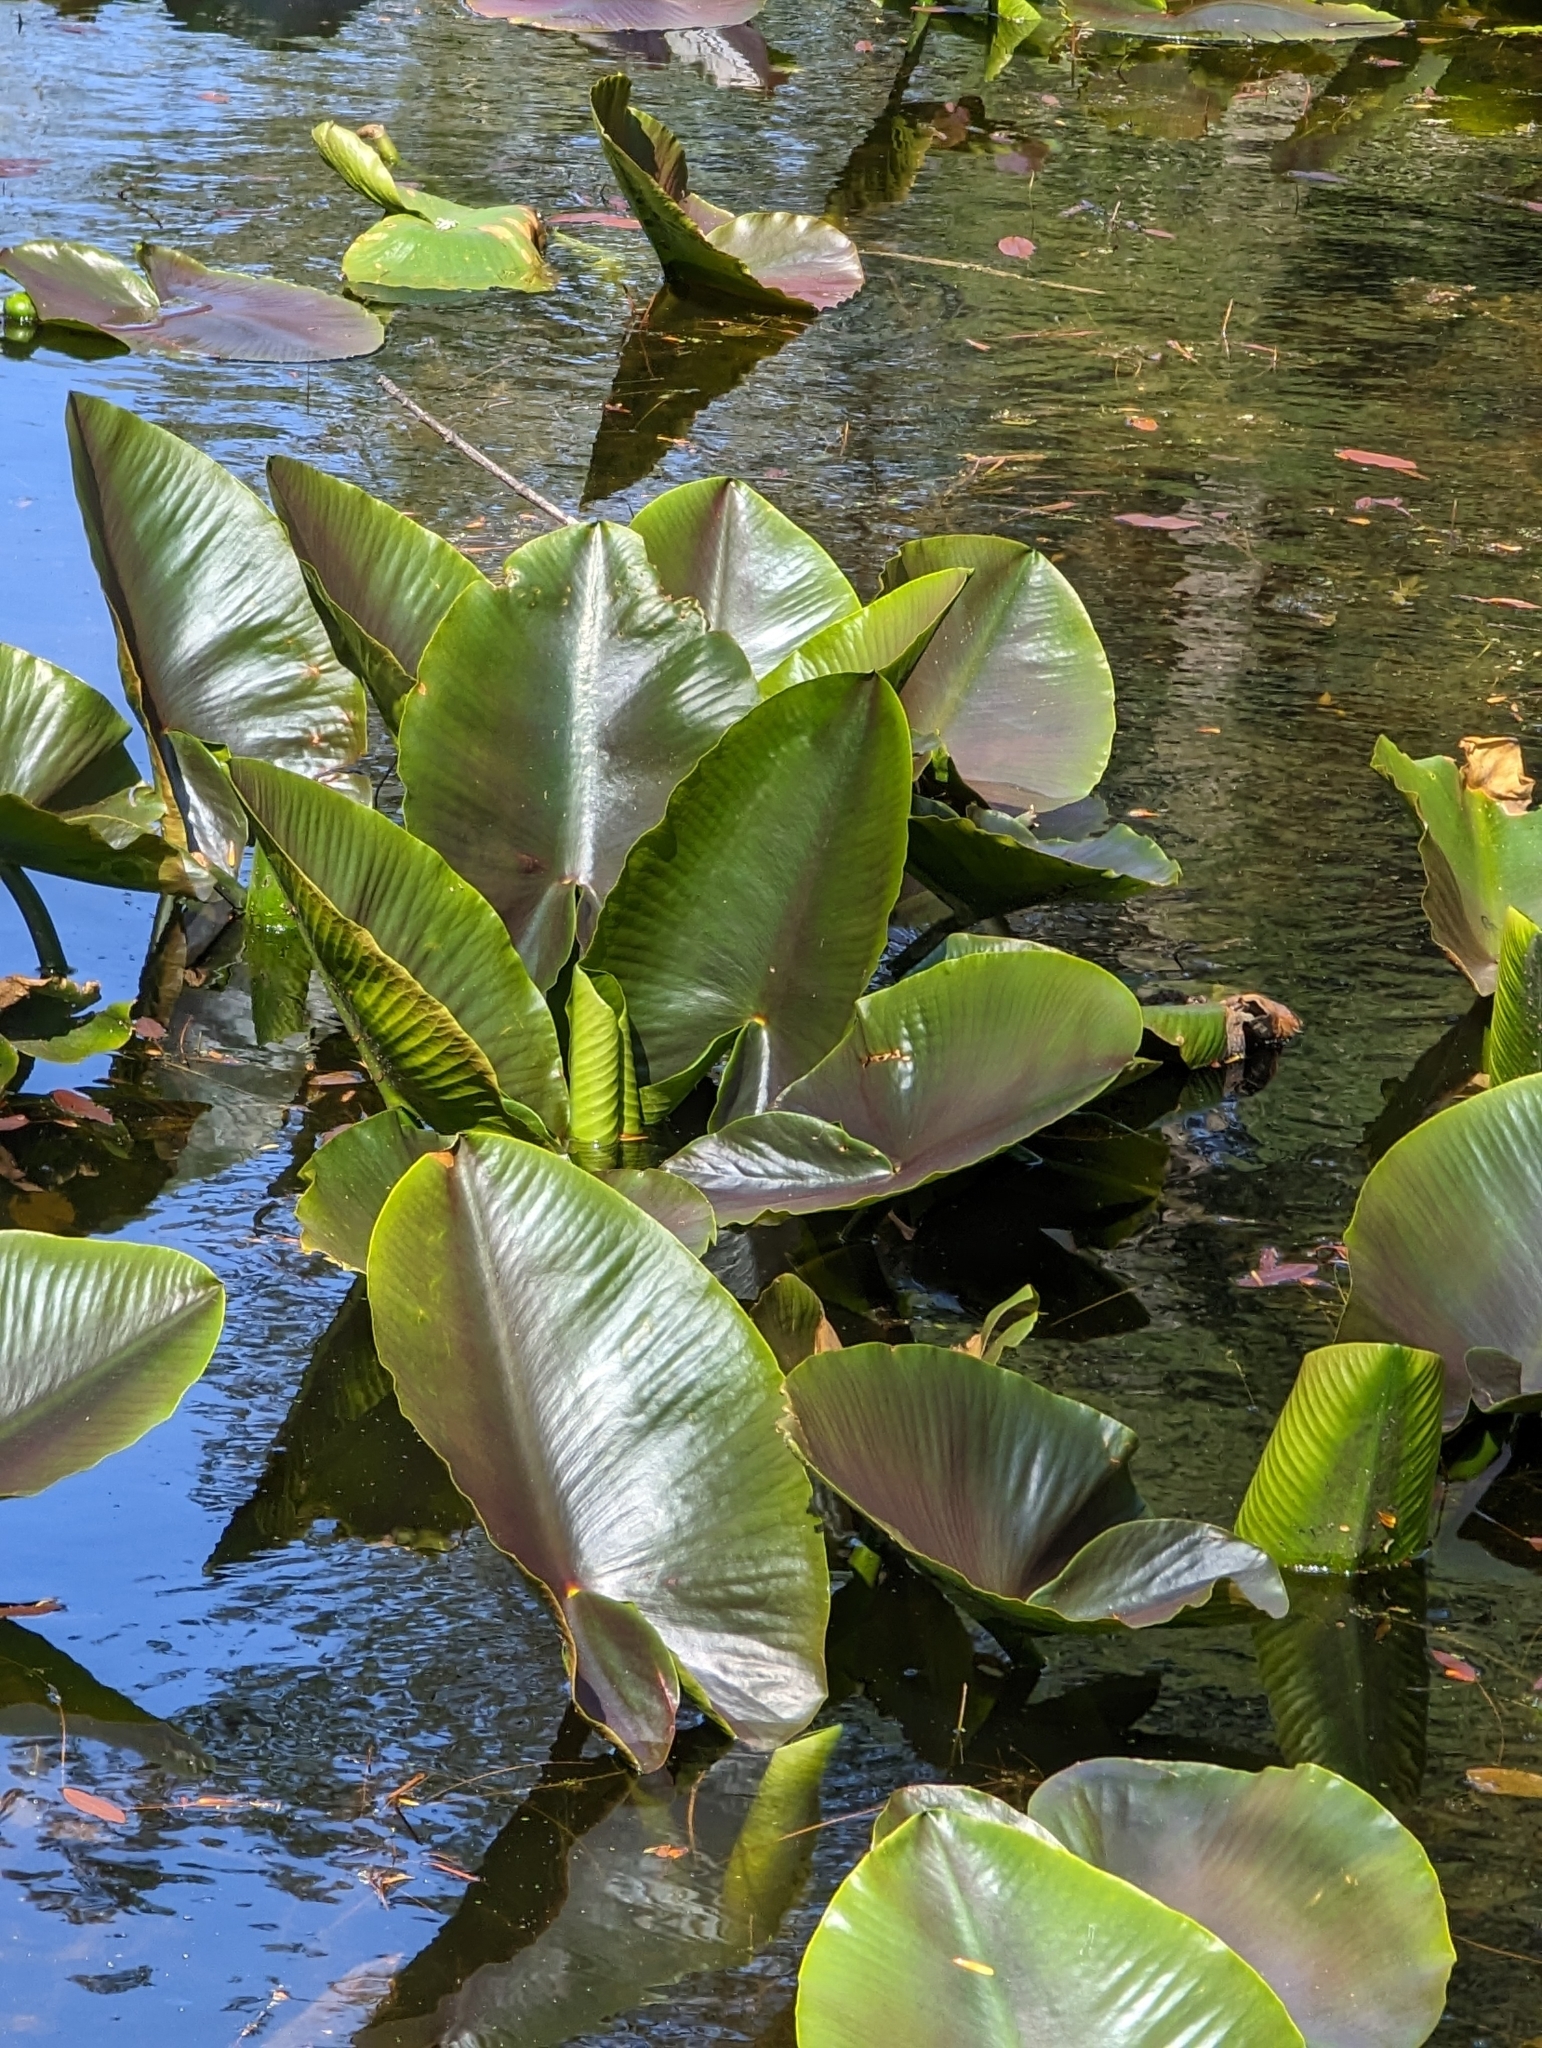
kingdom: Plantae
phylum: Tracheophyta
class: Magnoliopsida
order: Nymphaeales
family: Nymphaeaceae
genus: Nuphar
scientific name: Nuphar polysepala
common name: Rocky mountain cow-lily
